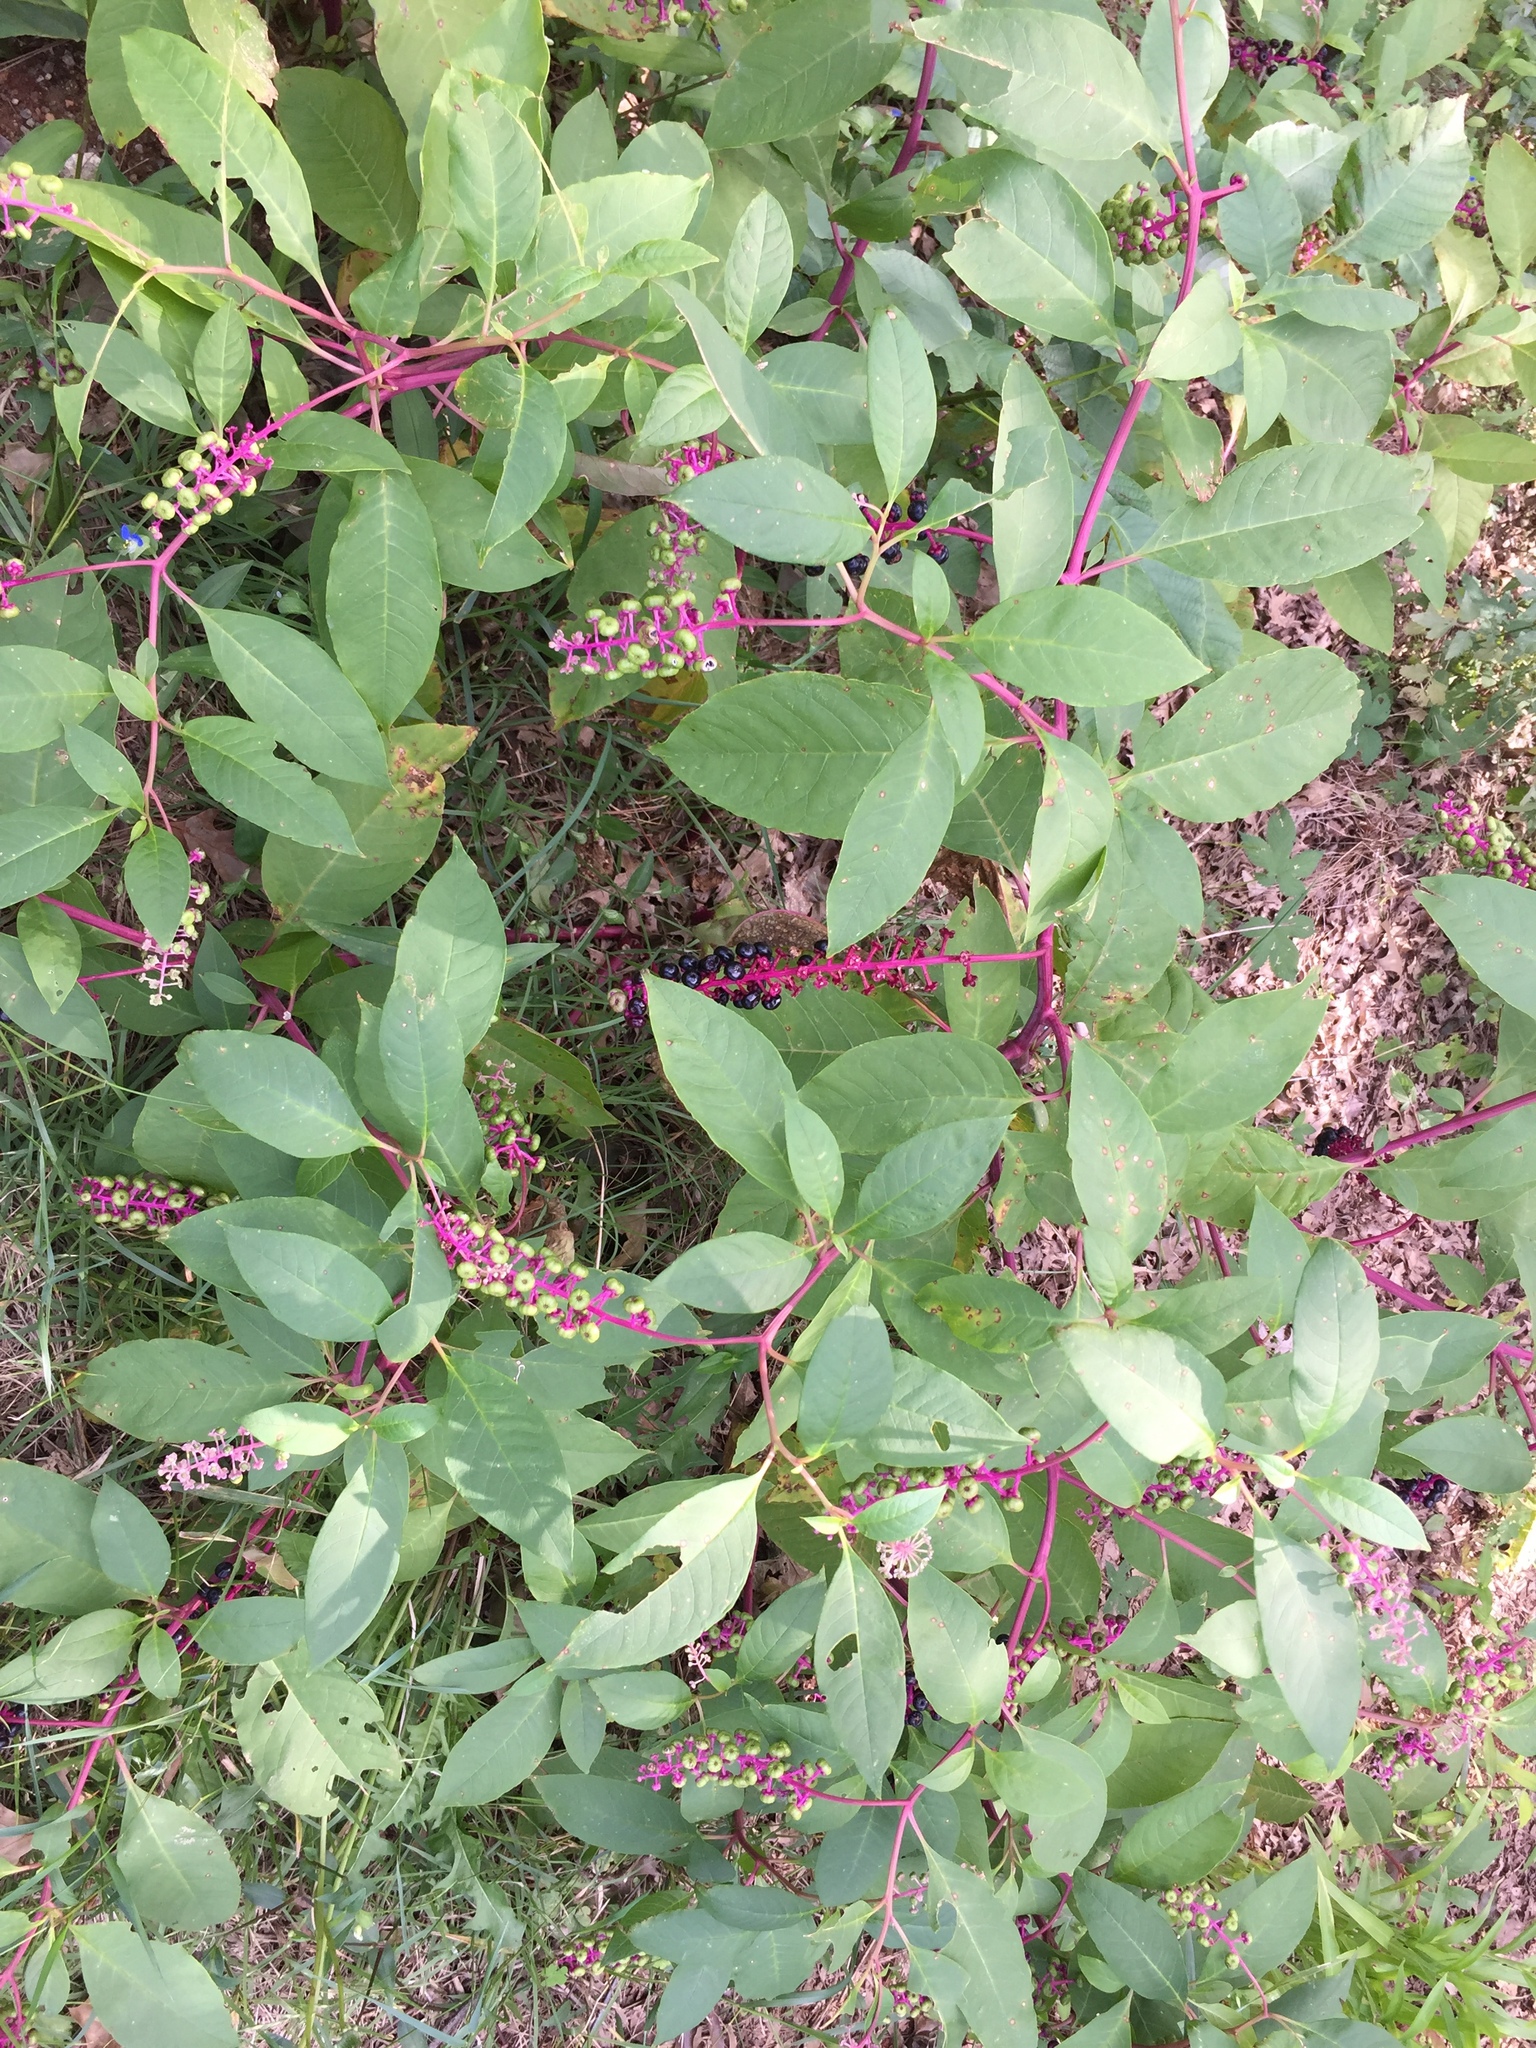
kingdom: Plantae
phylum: Tracheophyta
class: Magnoliopsida
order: Caryophyllales
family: Phytolaccaceae
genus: Phytolacca
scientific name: Phytolacca americana
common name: American pokeweed
